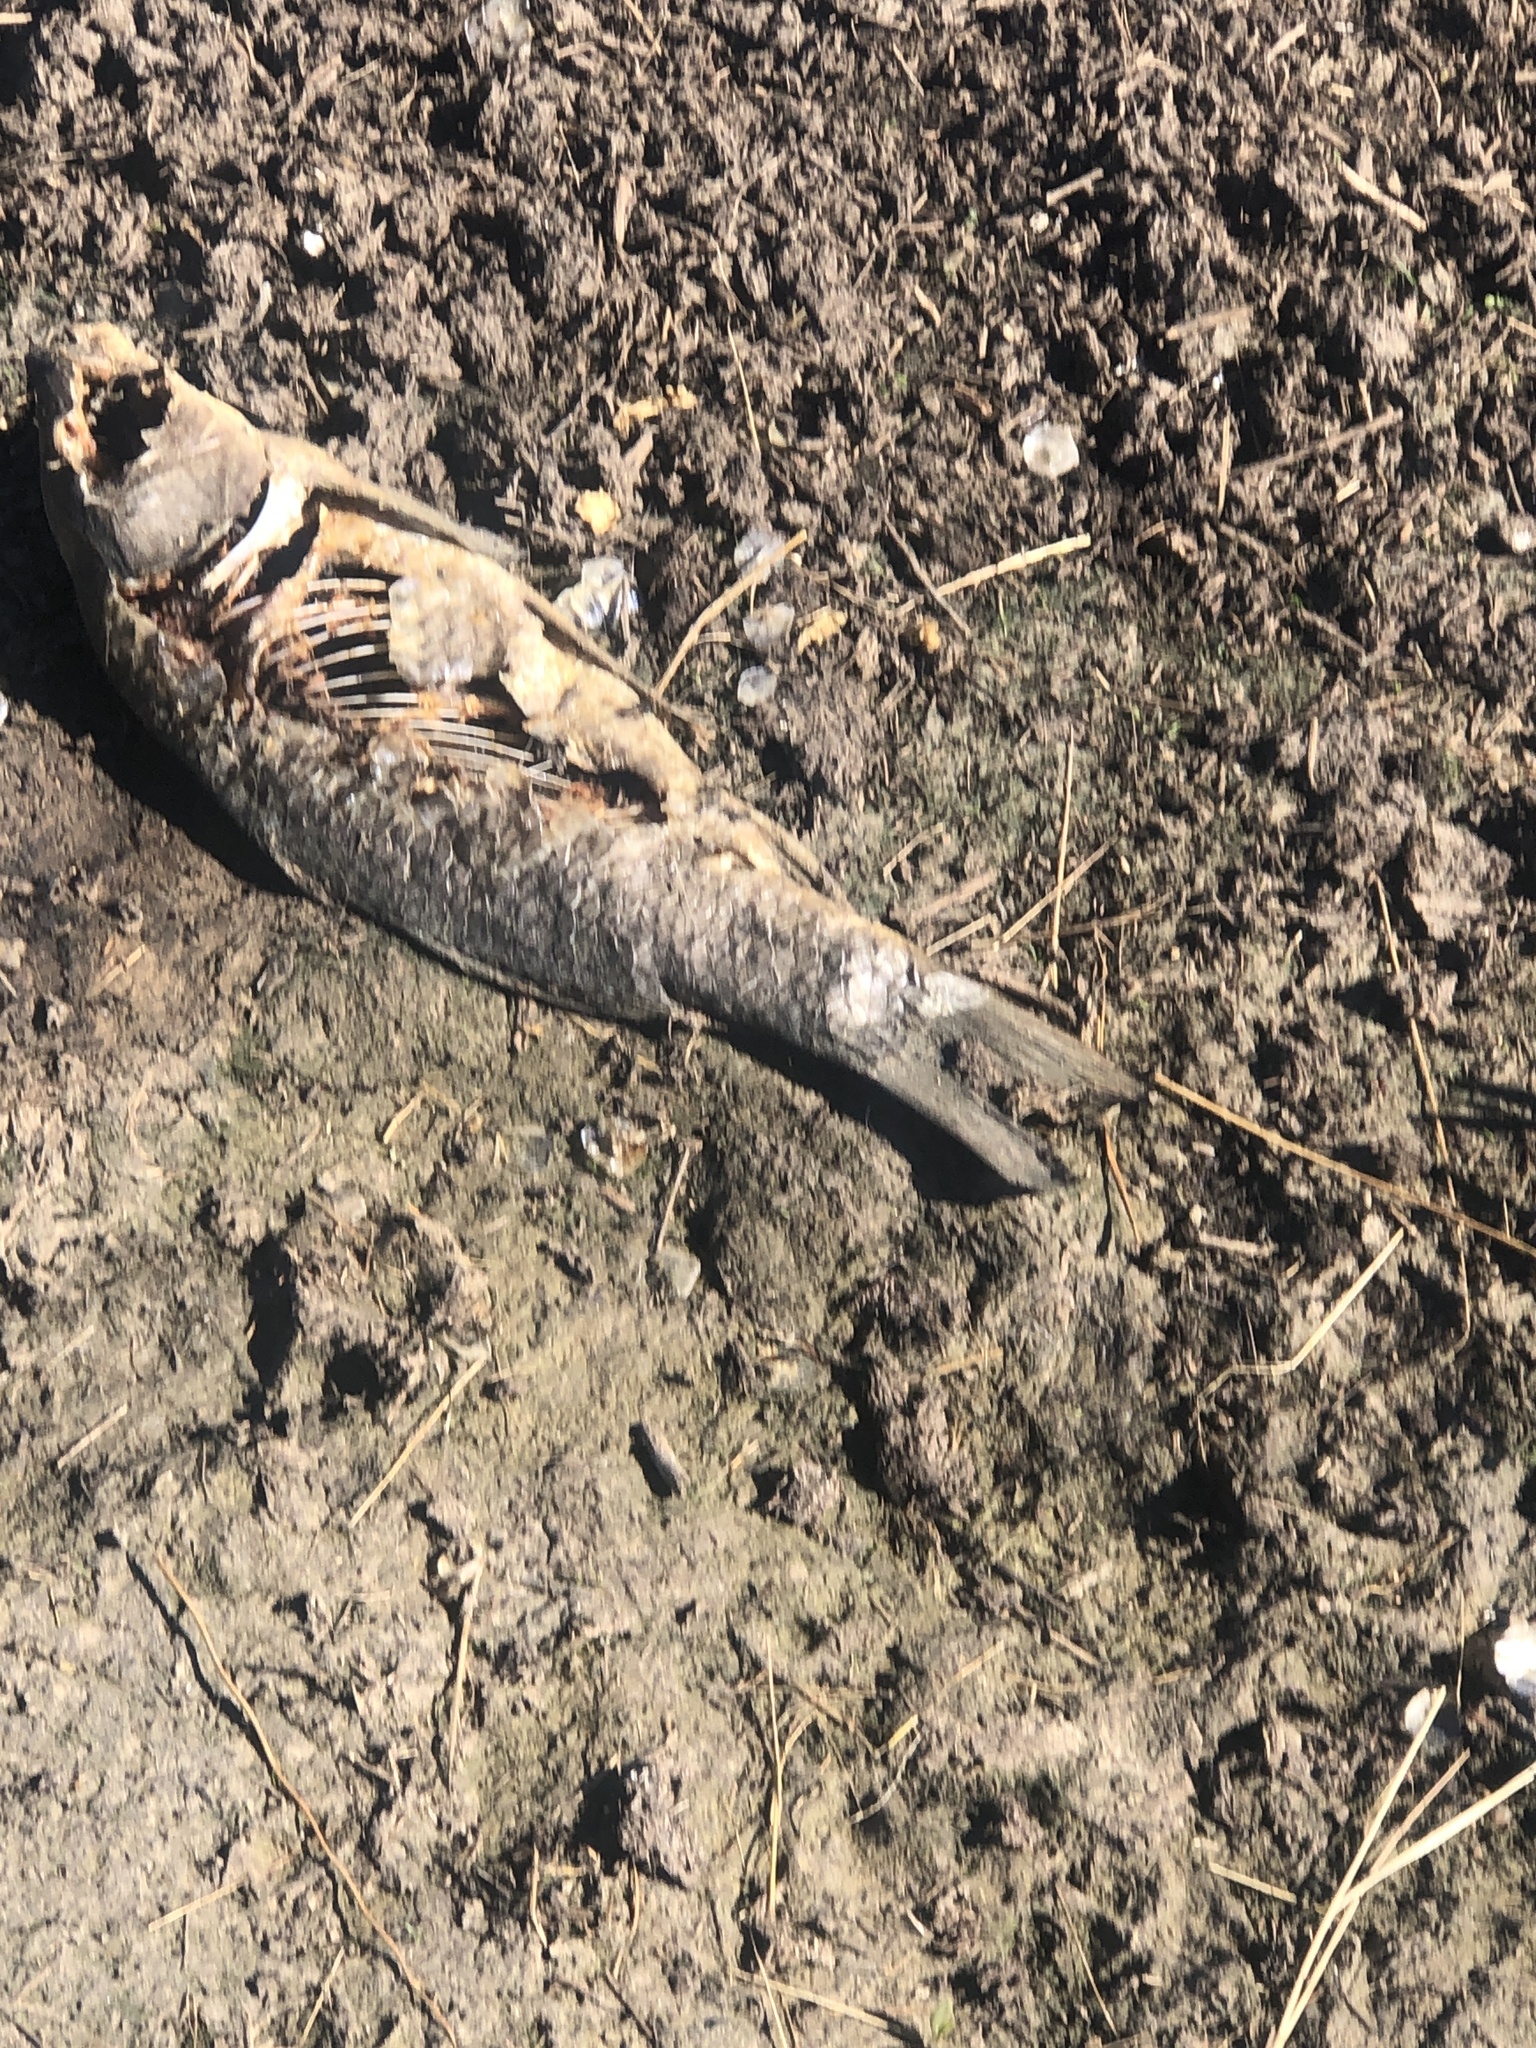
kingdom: Animalia
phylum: Chordata
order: Cypriniformes
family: Cyprinidae
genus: Cyprinus
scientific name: Cyprinus carpio
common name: Common carp
